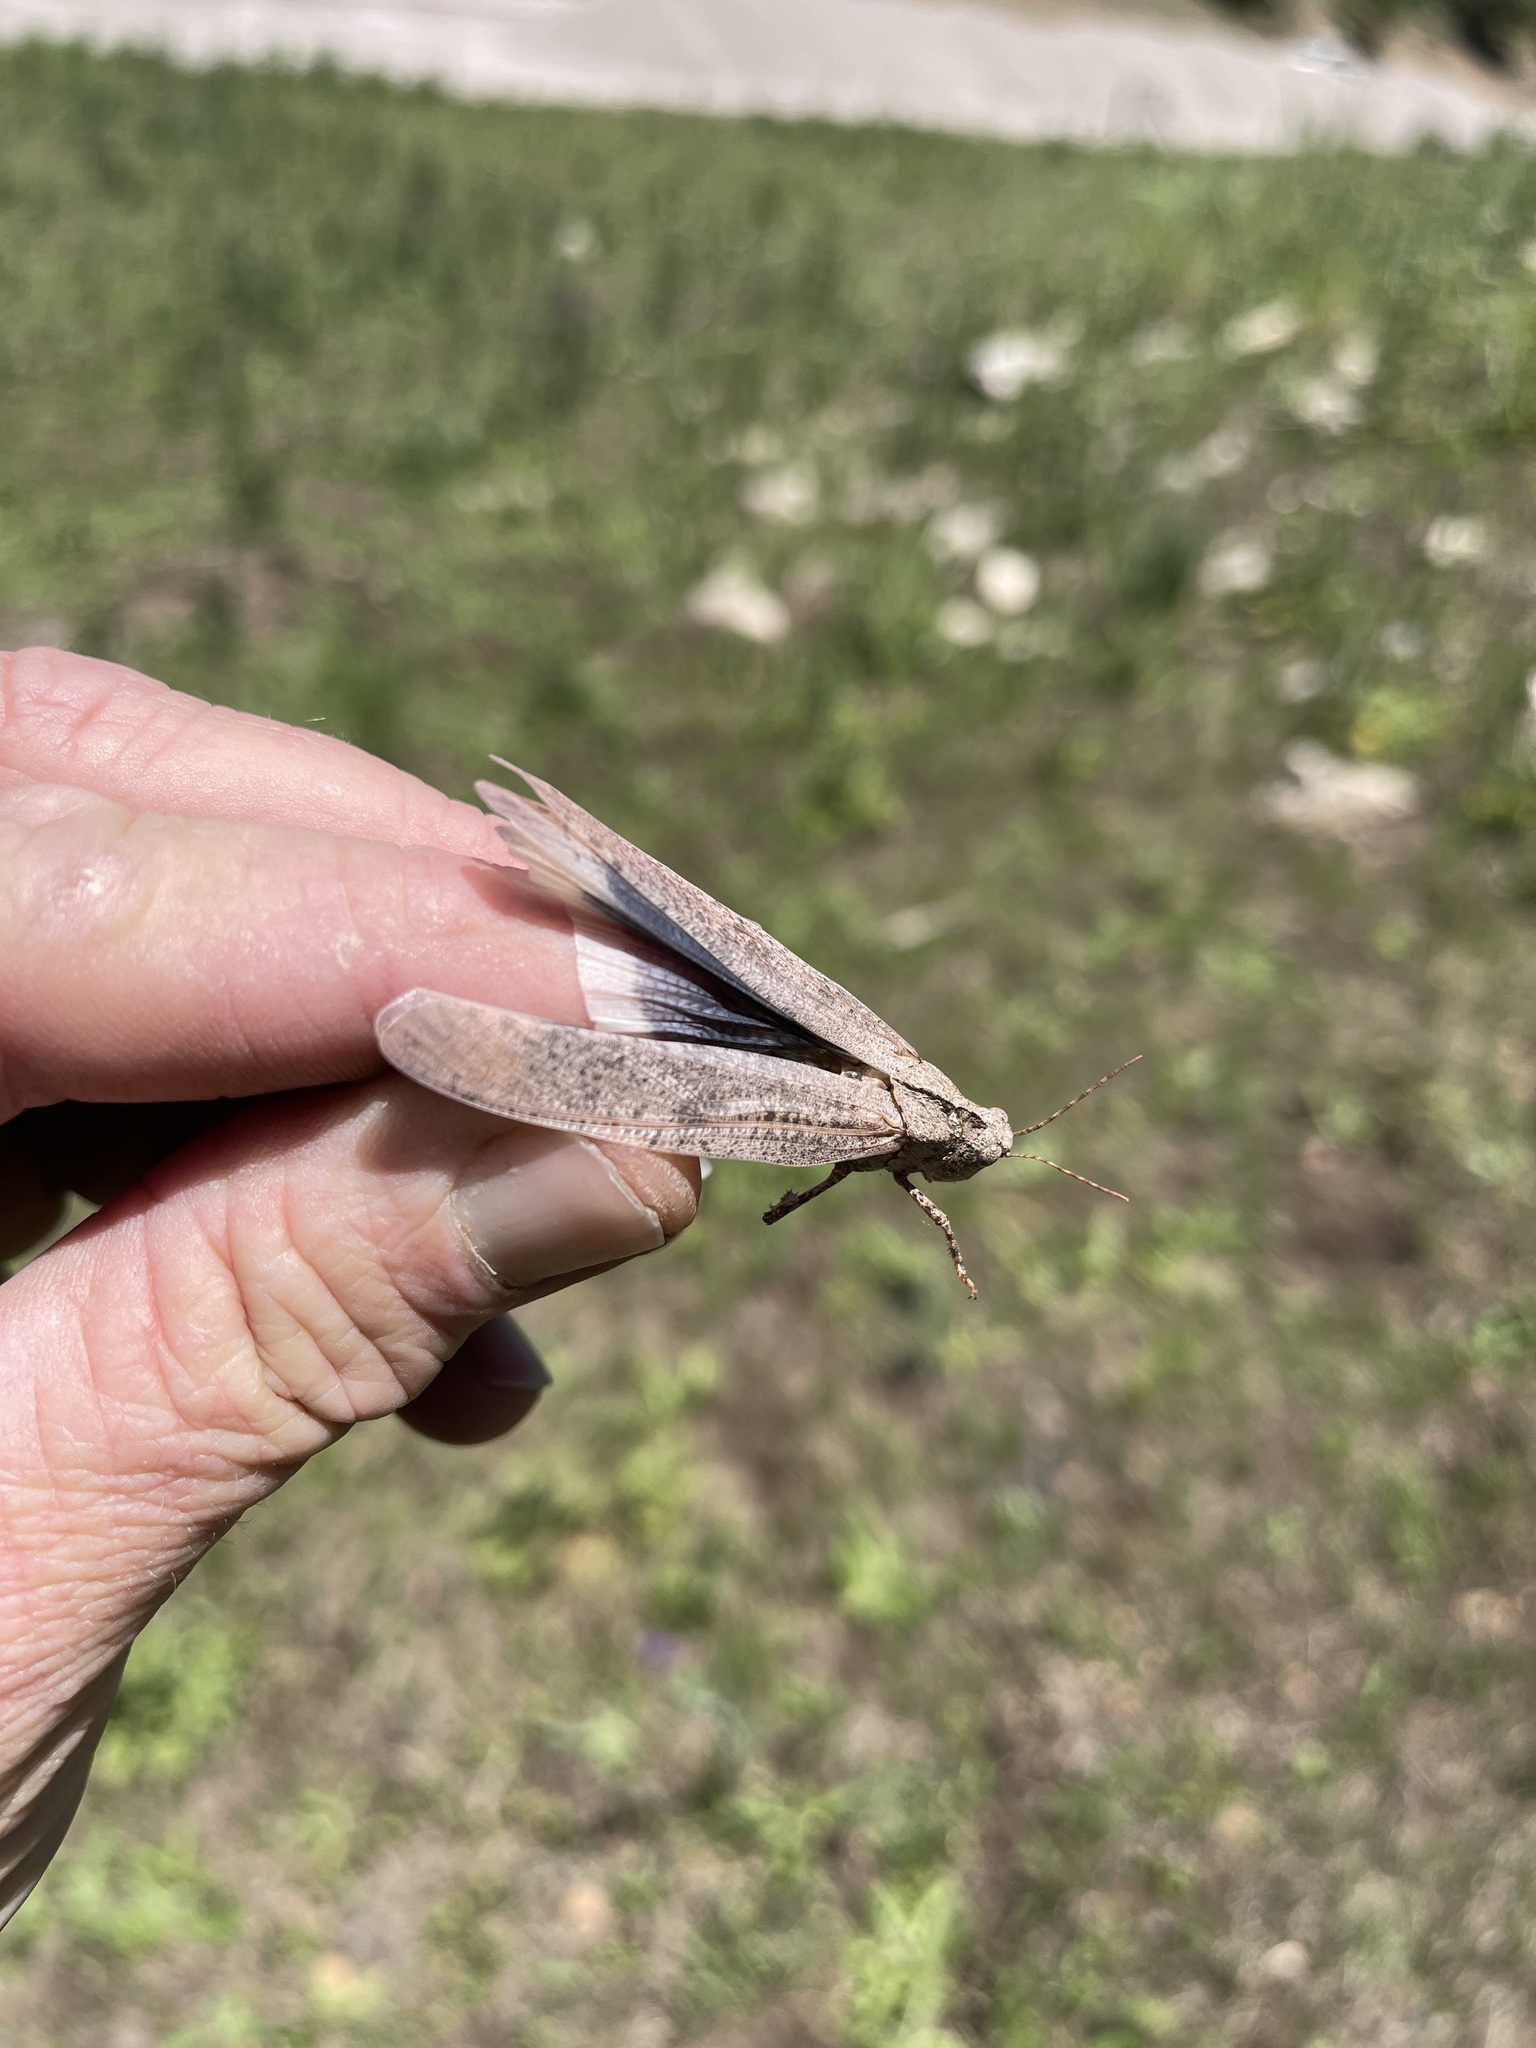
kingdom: Animalia
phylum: Arthropoda
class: Insecta
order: Orthoptera
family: Acrididae
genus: Dissosteira
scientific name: Dissosteira carolina
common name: Carolina grasshopper
